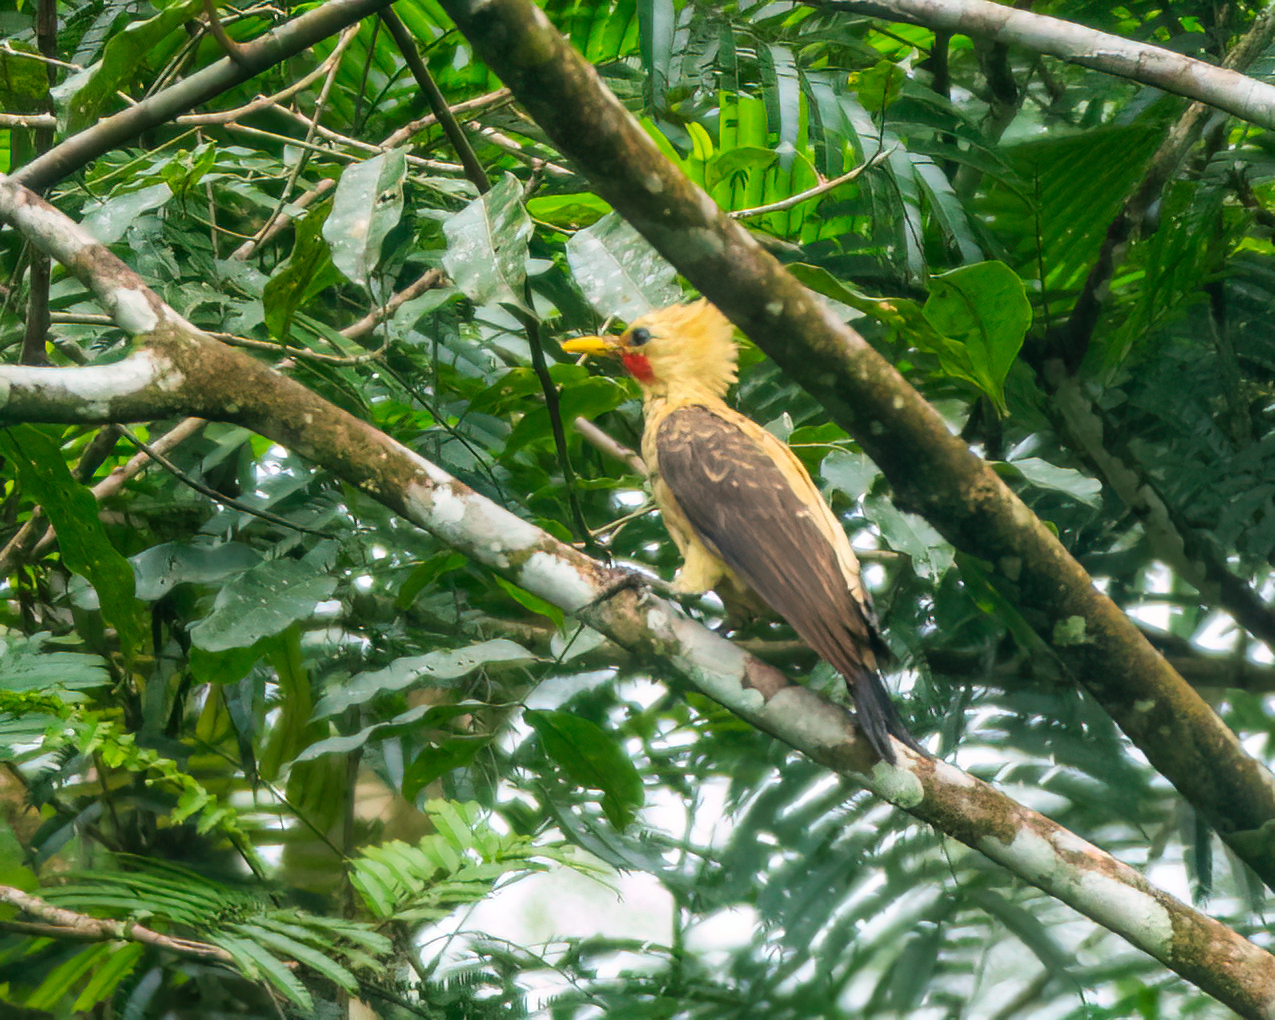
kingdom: Animalia
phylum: Chordata
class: Aves
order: Piciformes
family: Picidae
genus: Celeus
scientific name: Celeus flavus
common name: Cream-colored woodpecker
